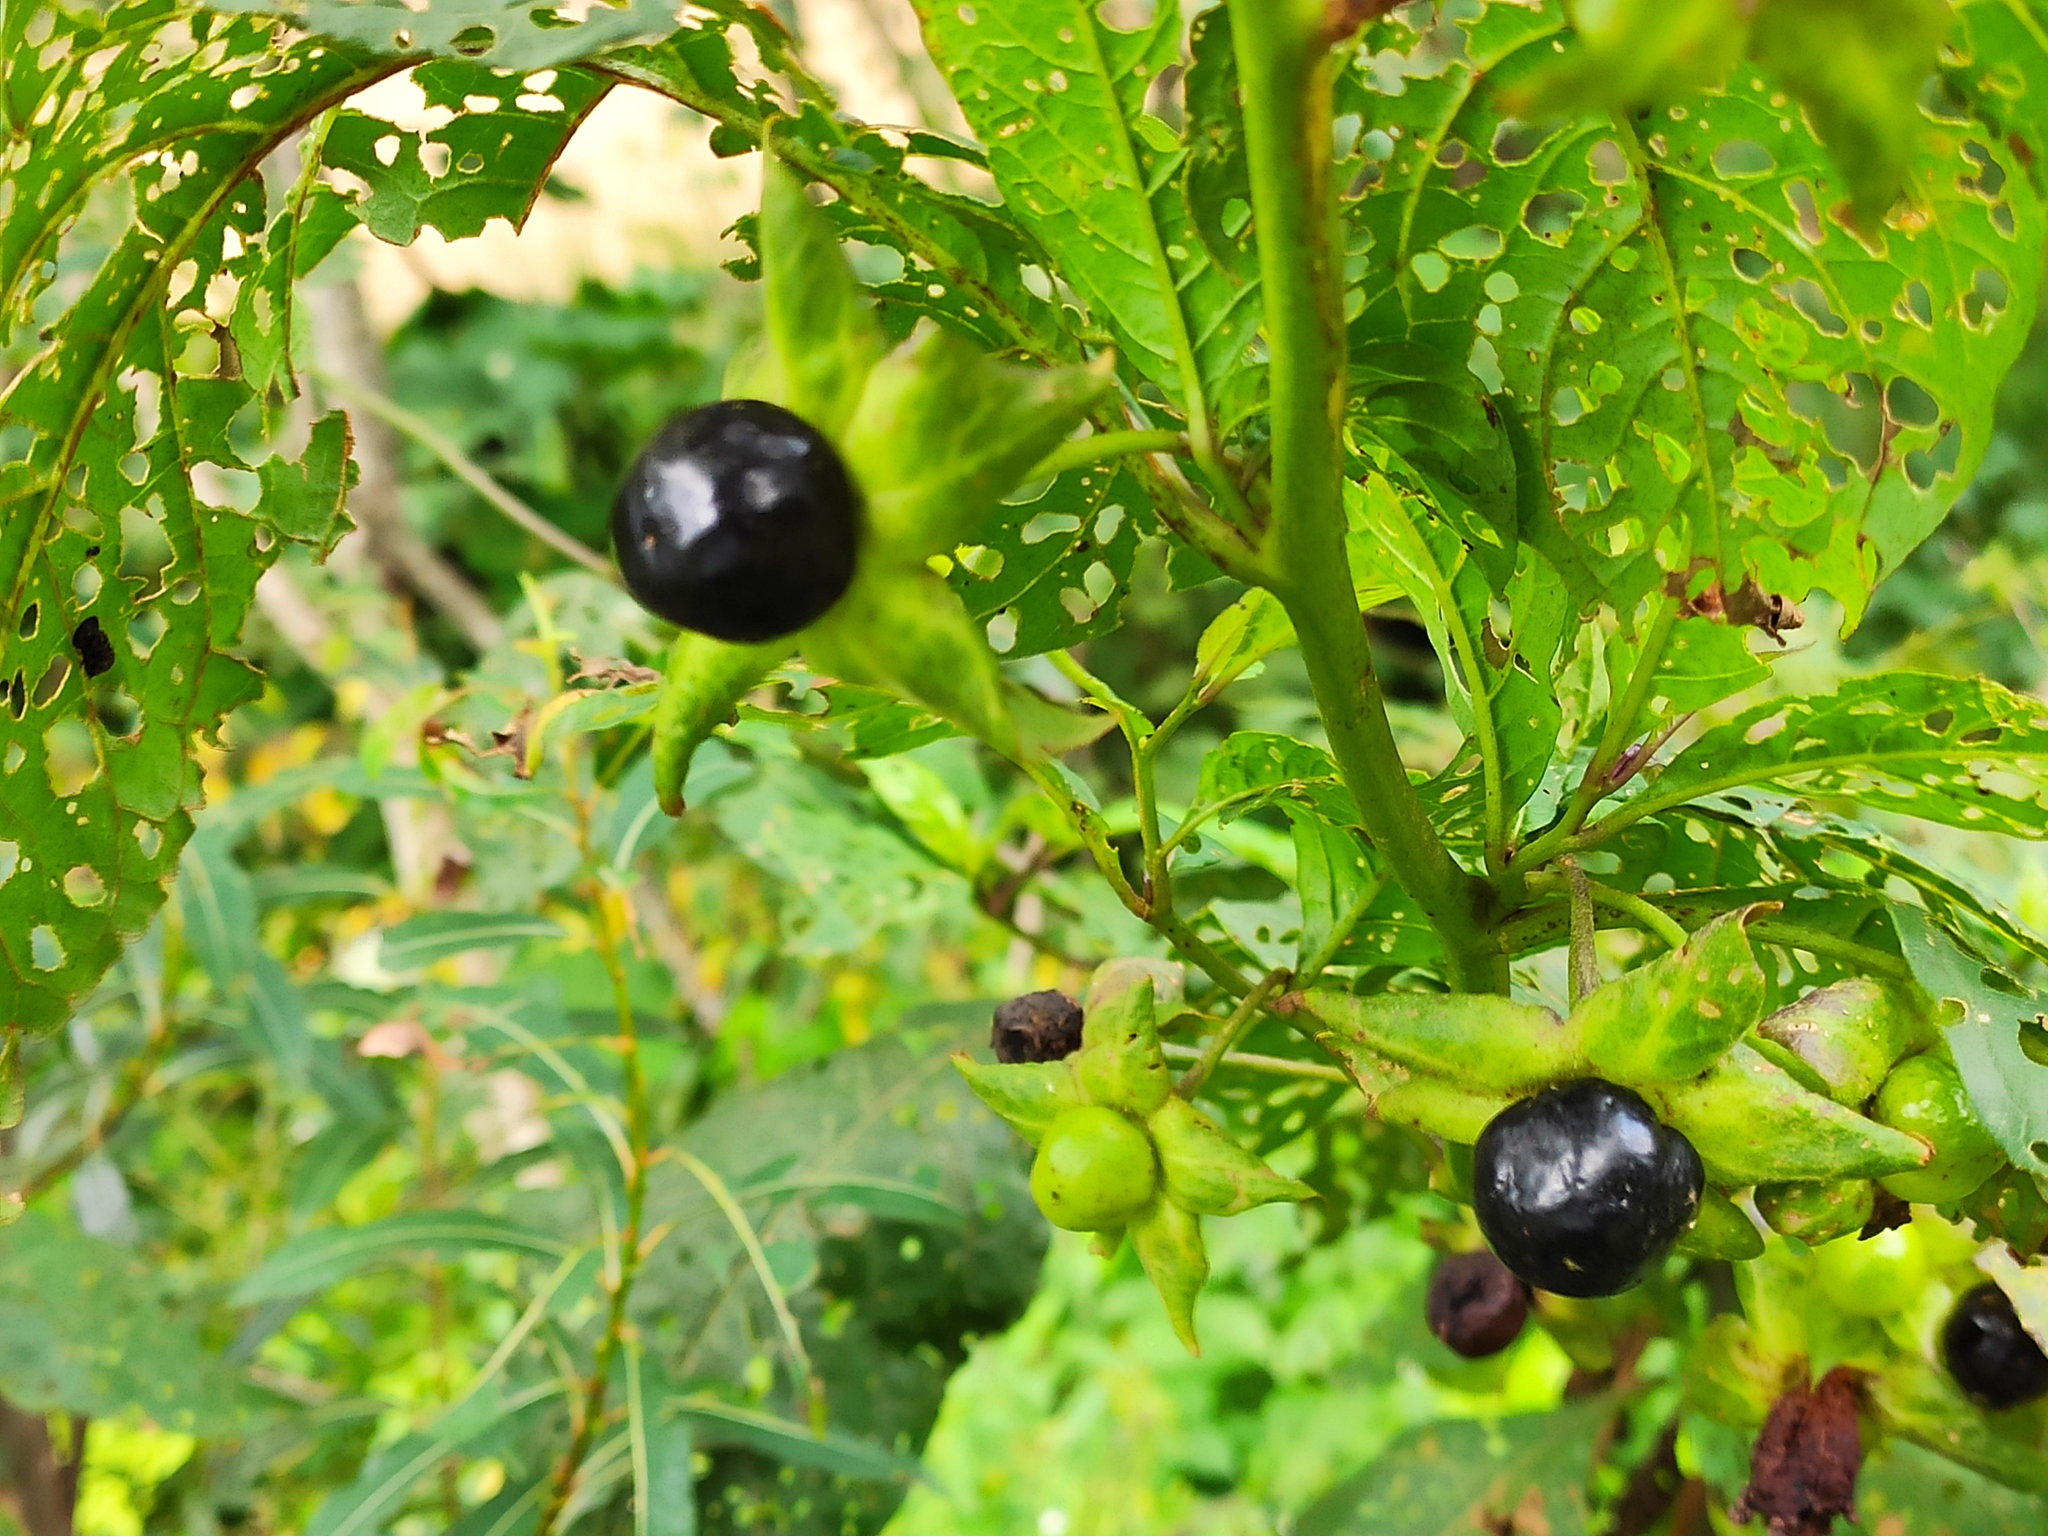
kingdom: Plantae
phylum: Tracheophyta
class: Magnoliopsida
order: Solanales
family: Solanaceae
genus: Atropa
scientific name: Atropa belladonna
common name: Deadly nightshade
